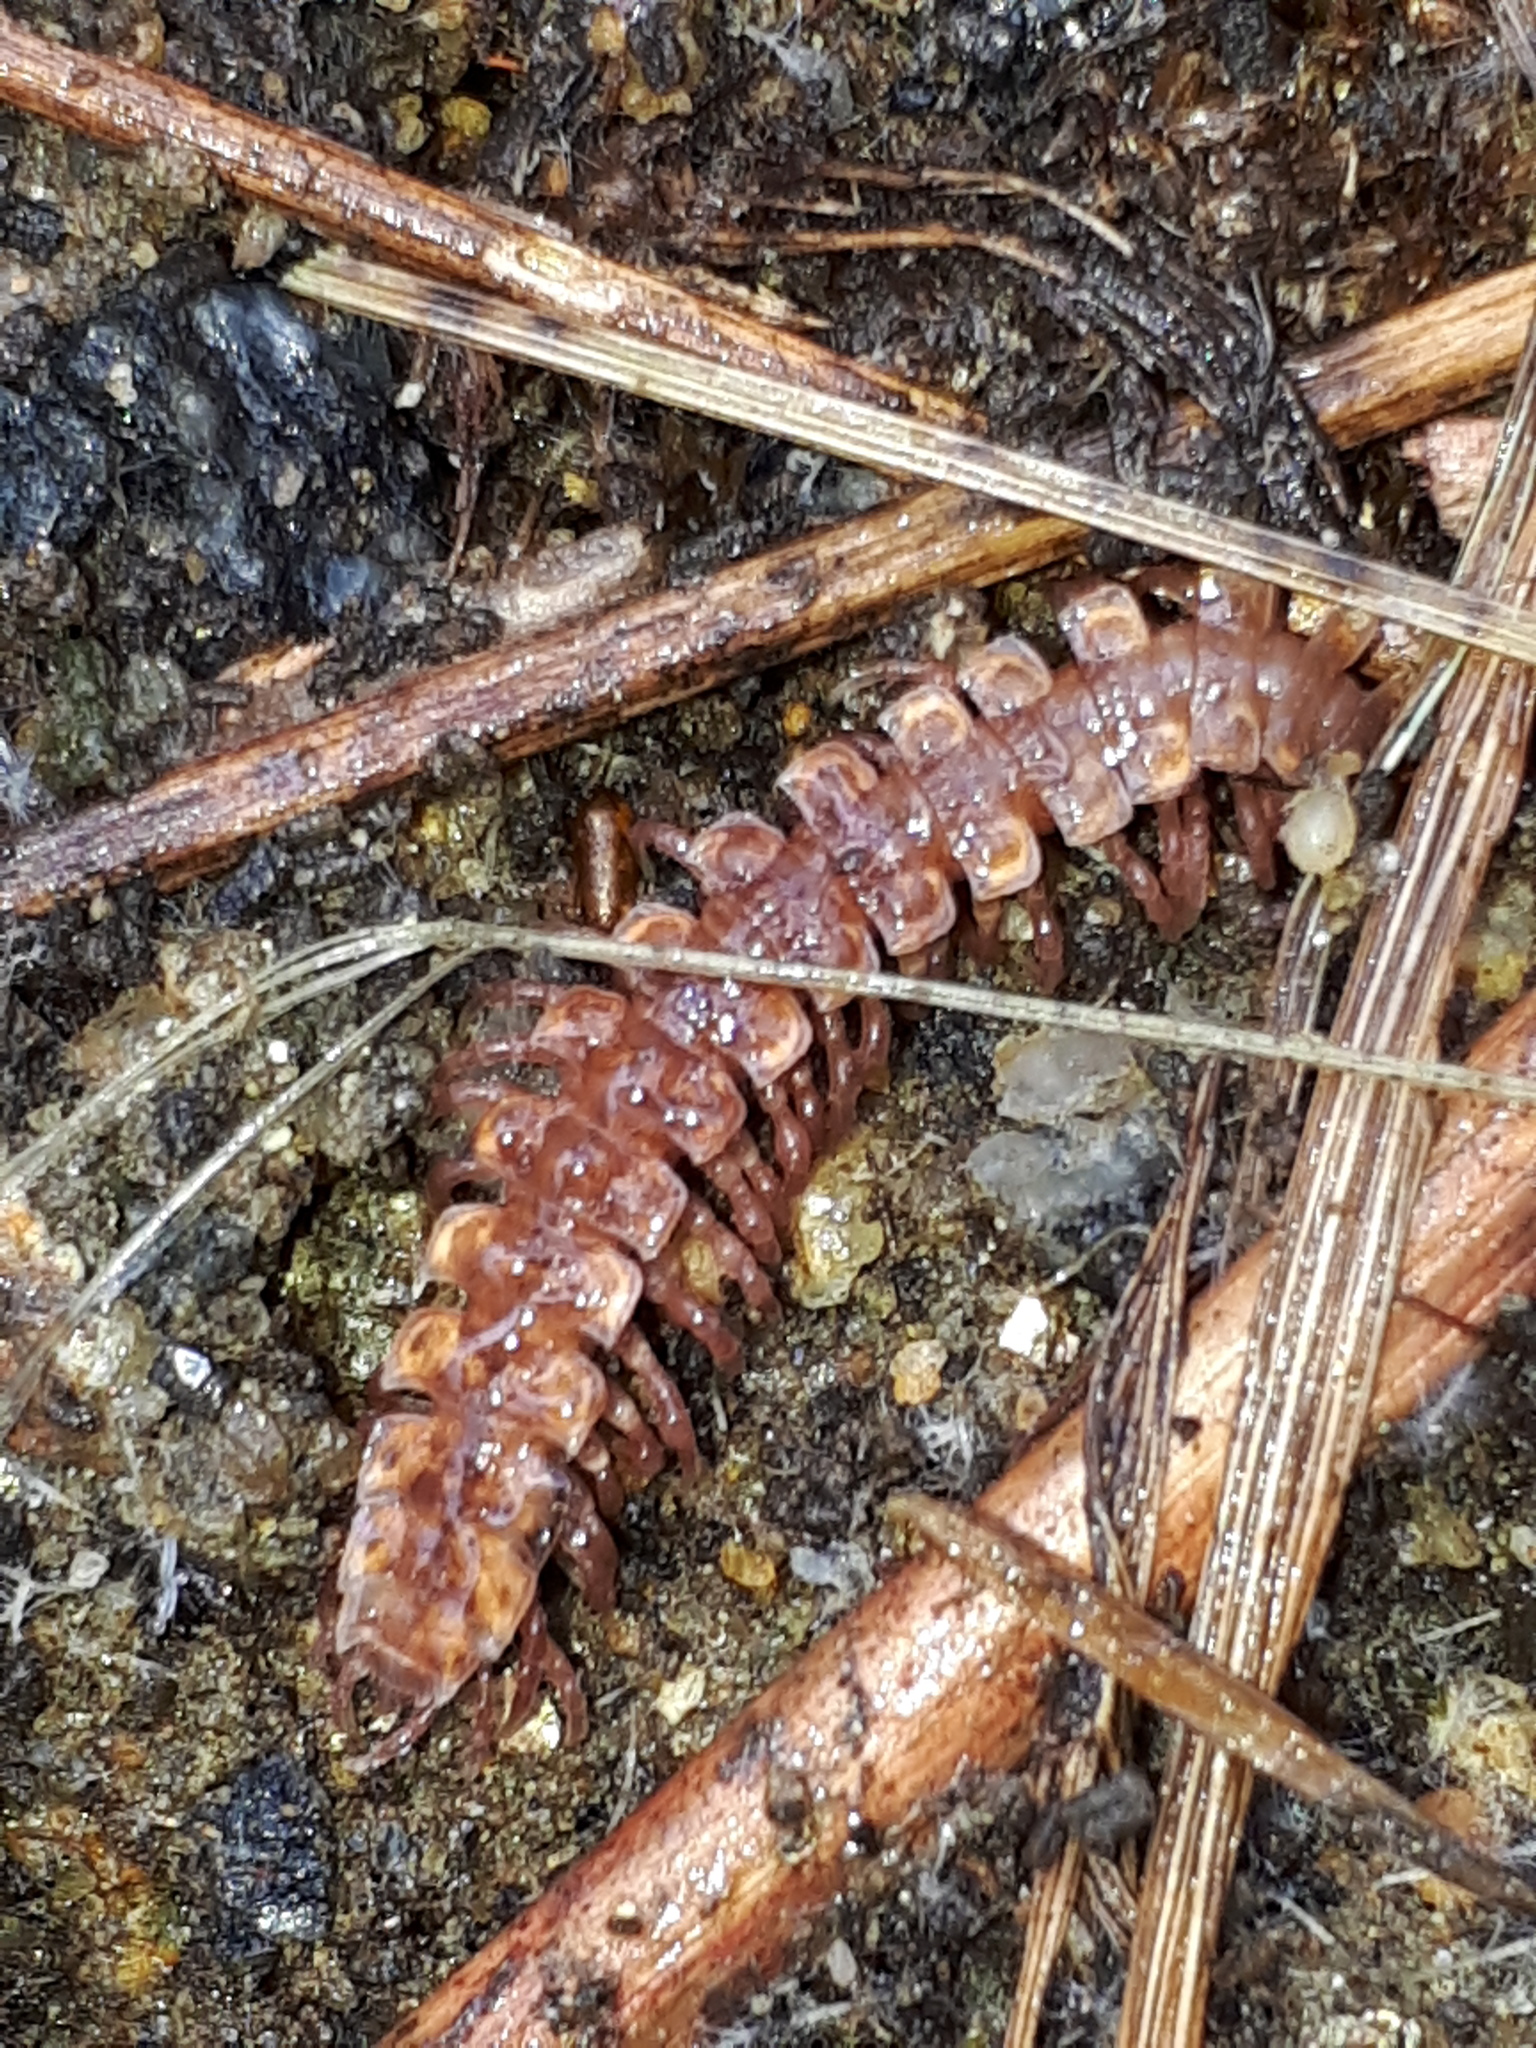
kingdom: Animalia
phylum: Arthropoda
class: Diplopoda
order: Polydesmida
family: Polydesmidae
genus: Polydesmus
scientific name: Polydesmus complanatus
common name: Flat-backed millipede
